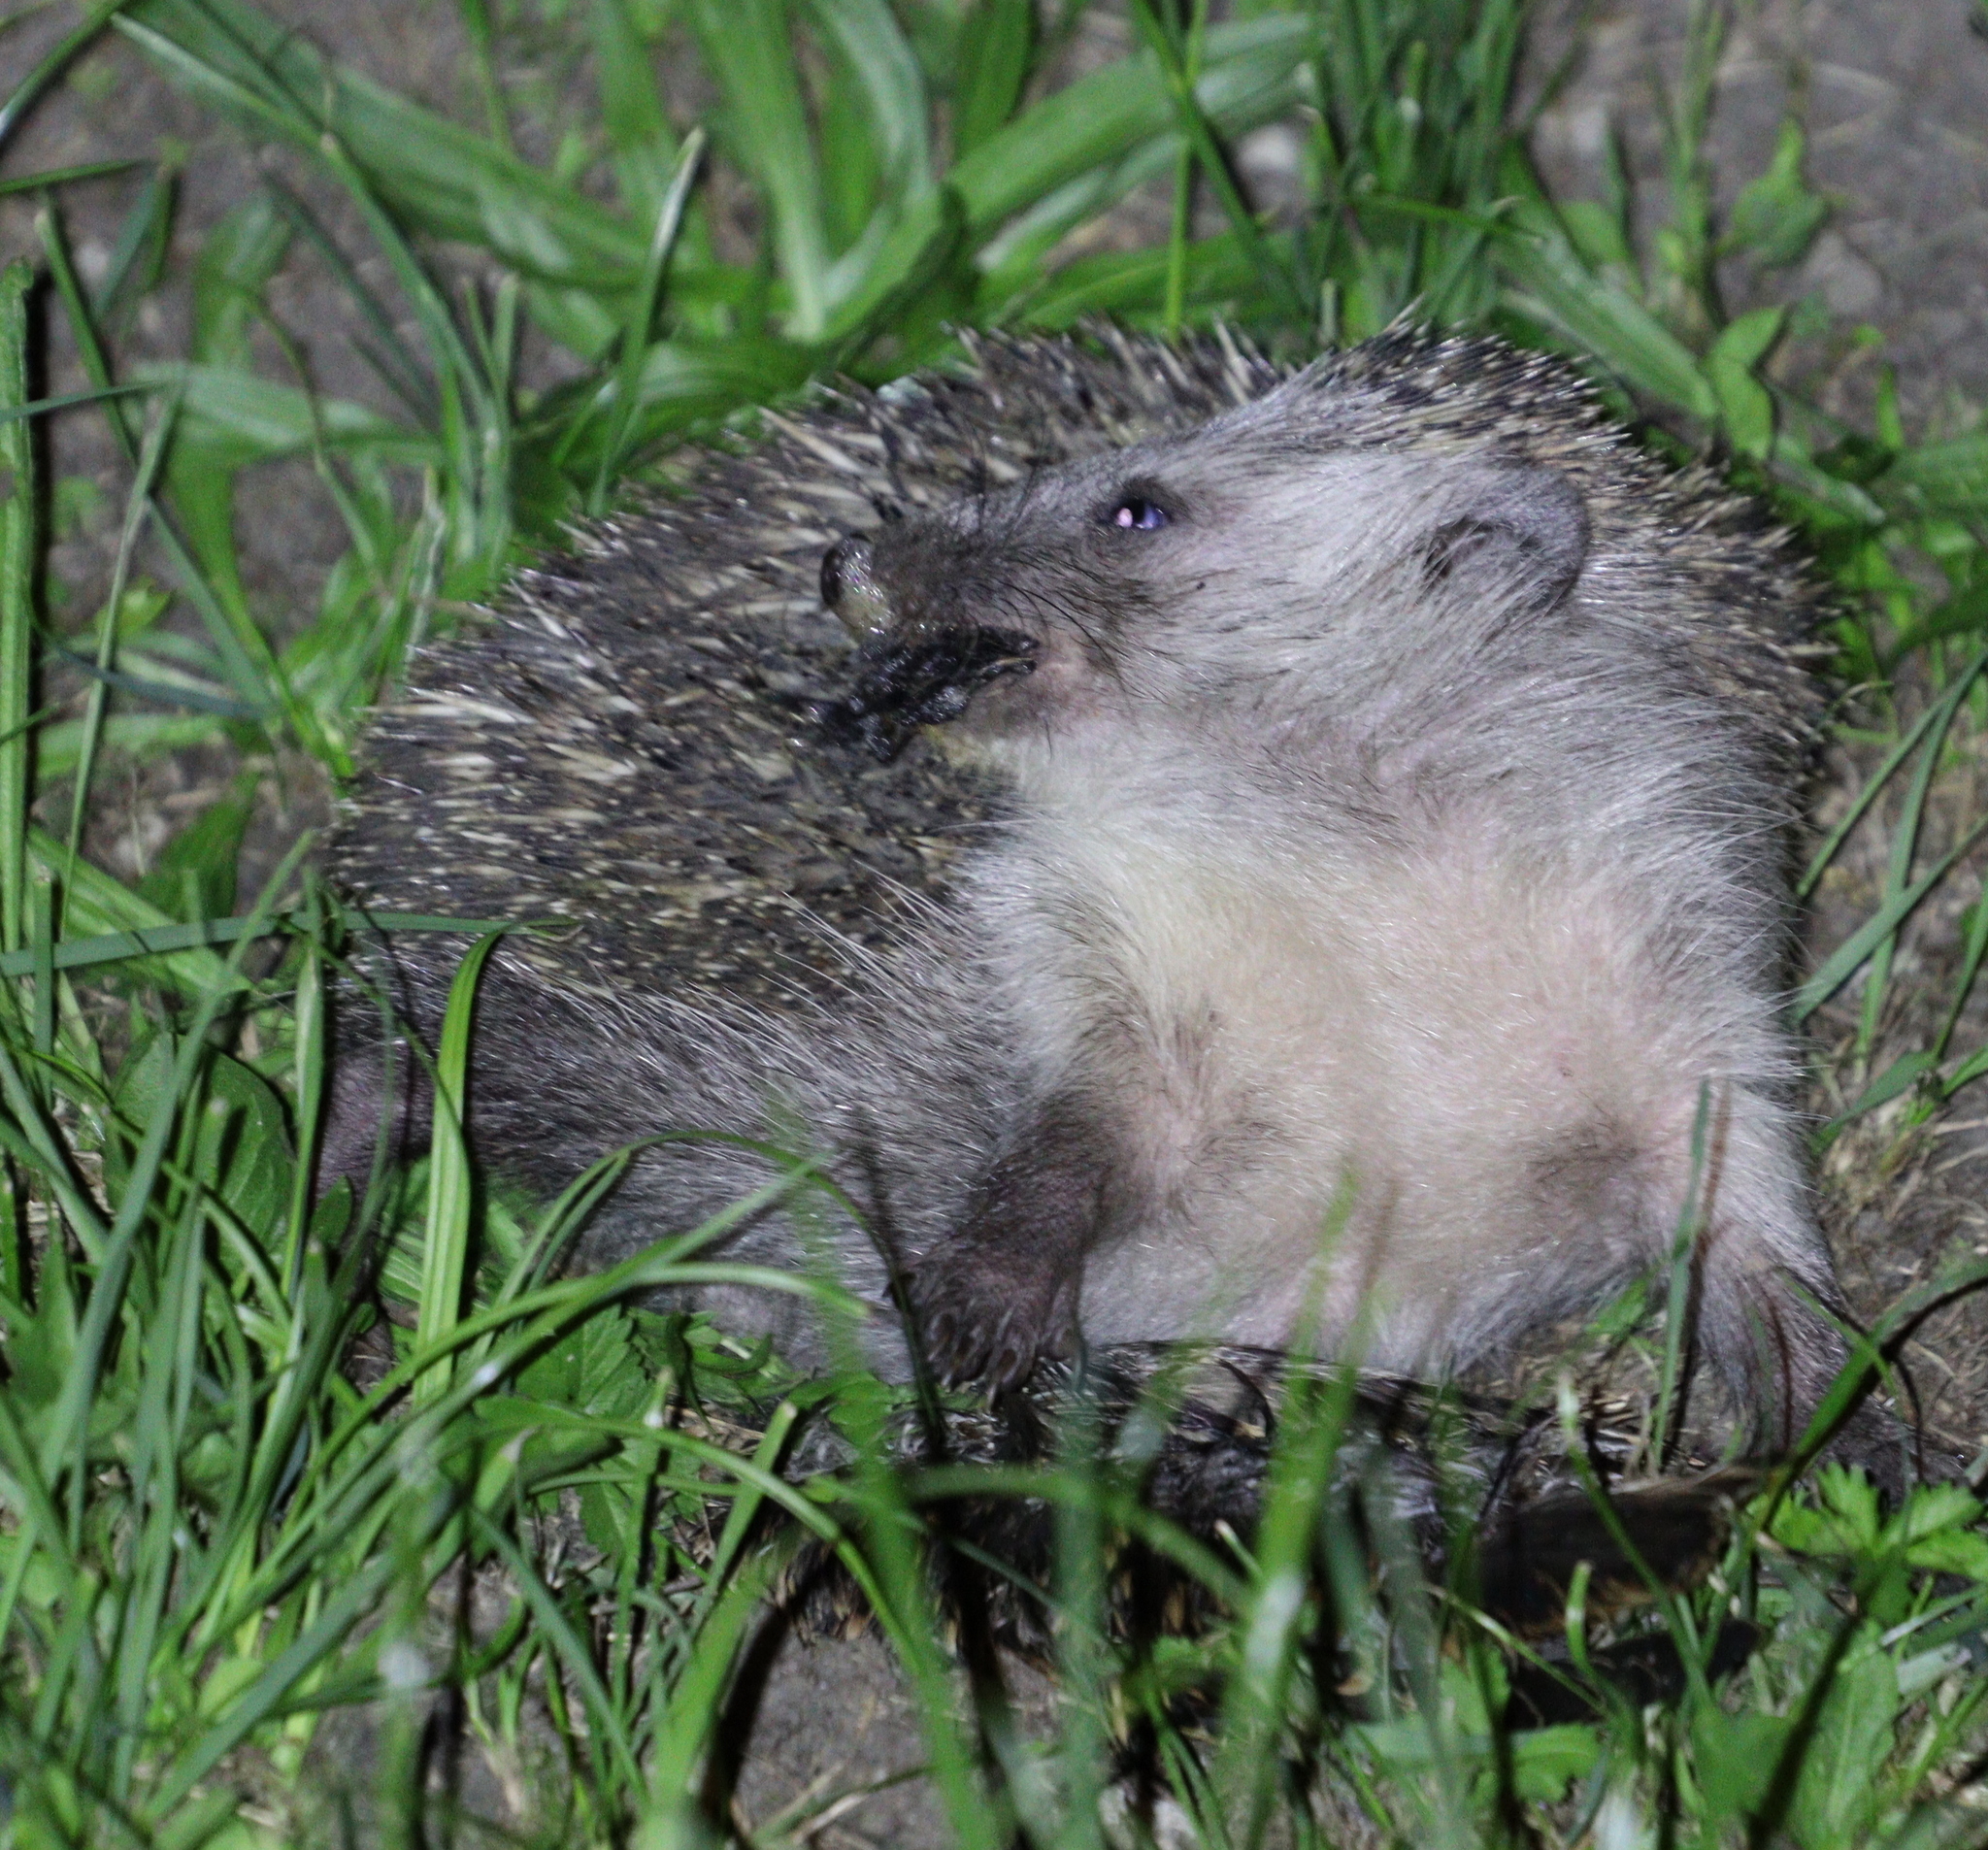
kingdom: Animalia
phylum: Chordata
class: Mammalia
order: Erinaceomorpha
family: Erinaceidae
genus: Erinaceus
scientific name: Erinaceus roumanicus
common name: Northern white-breasted hedgehog
